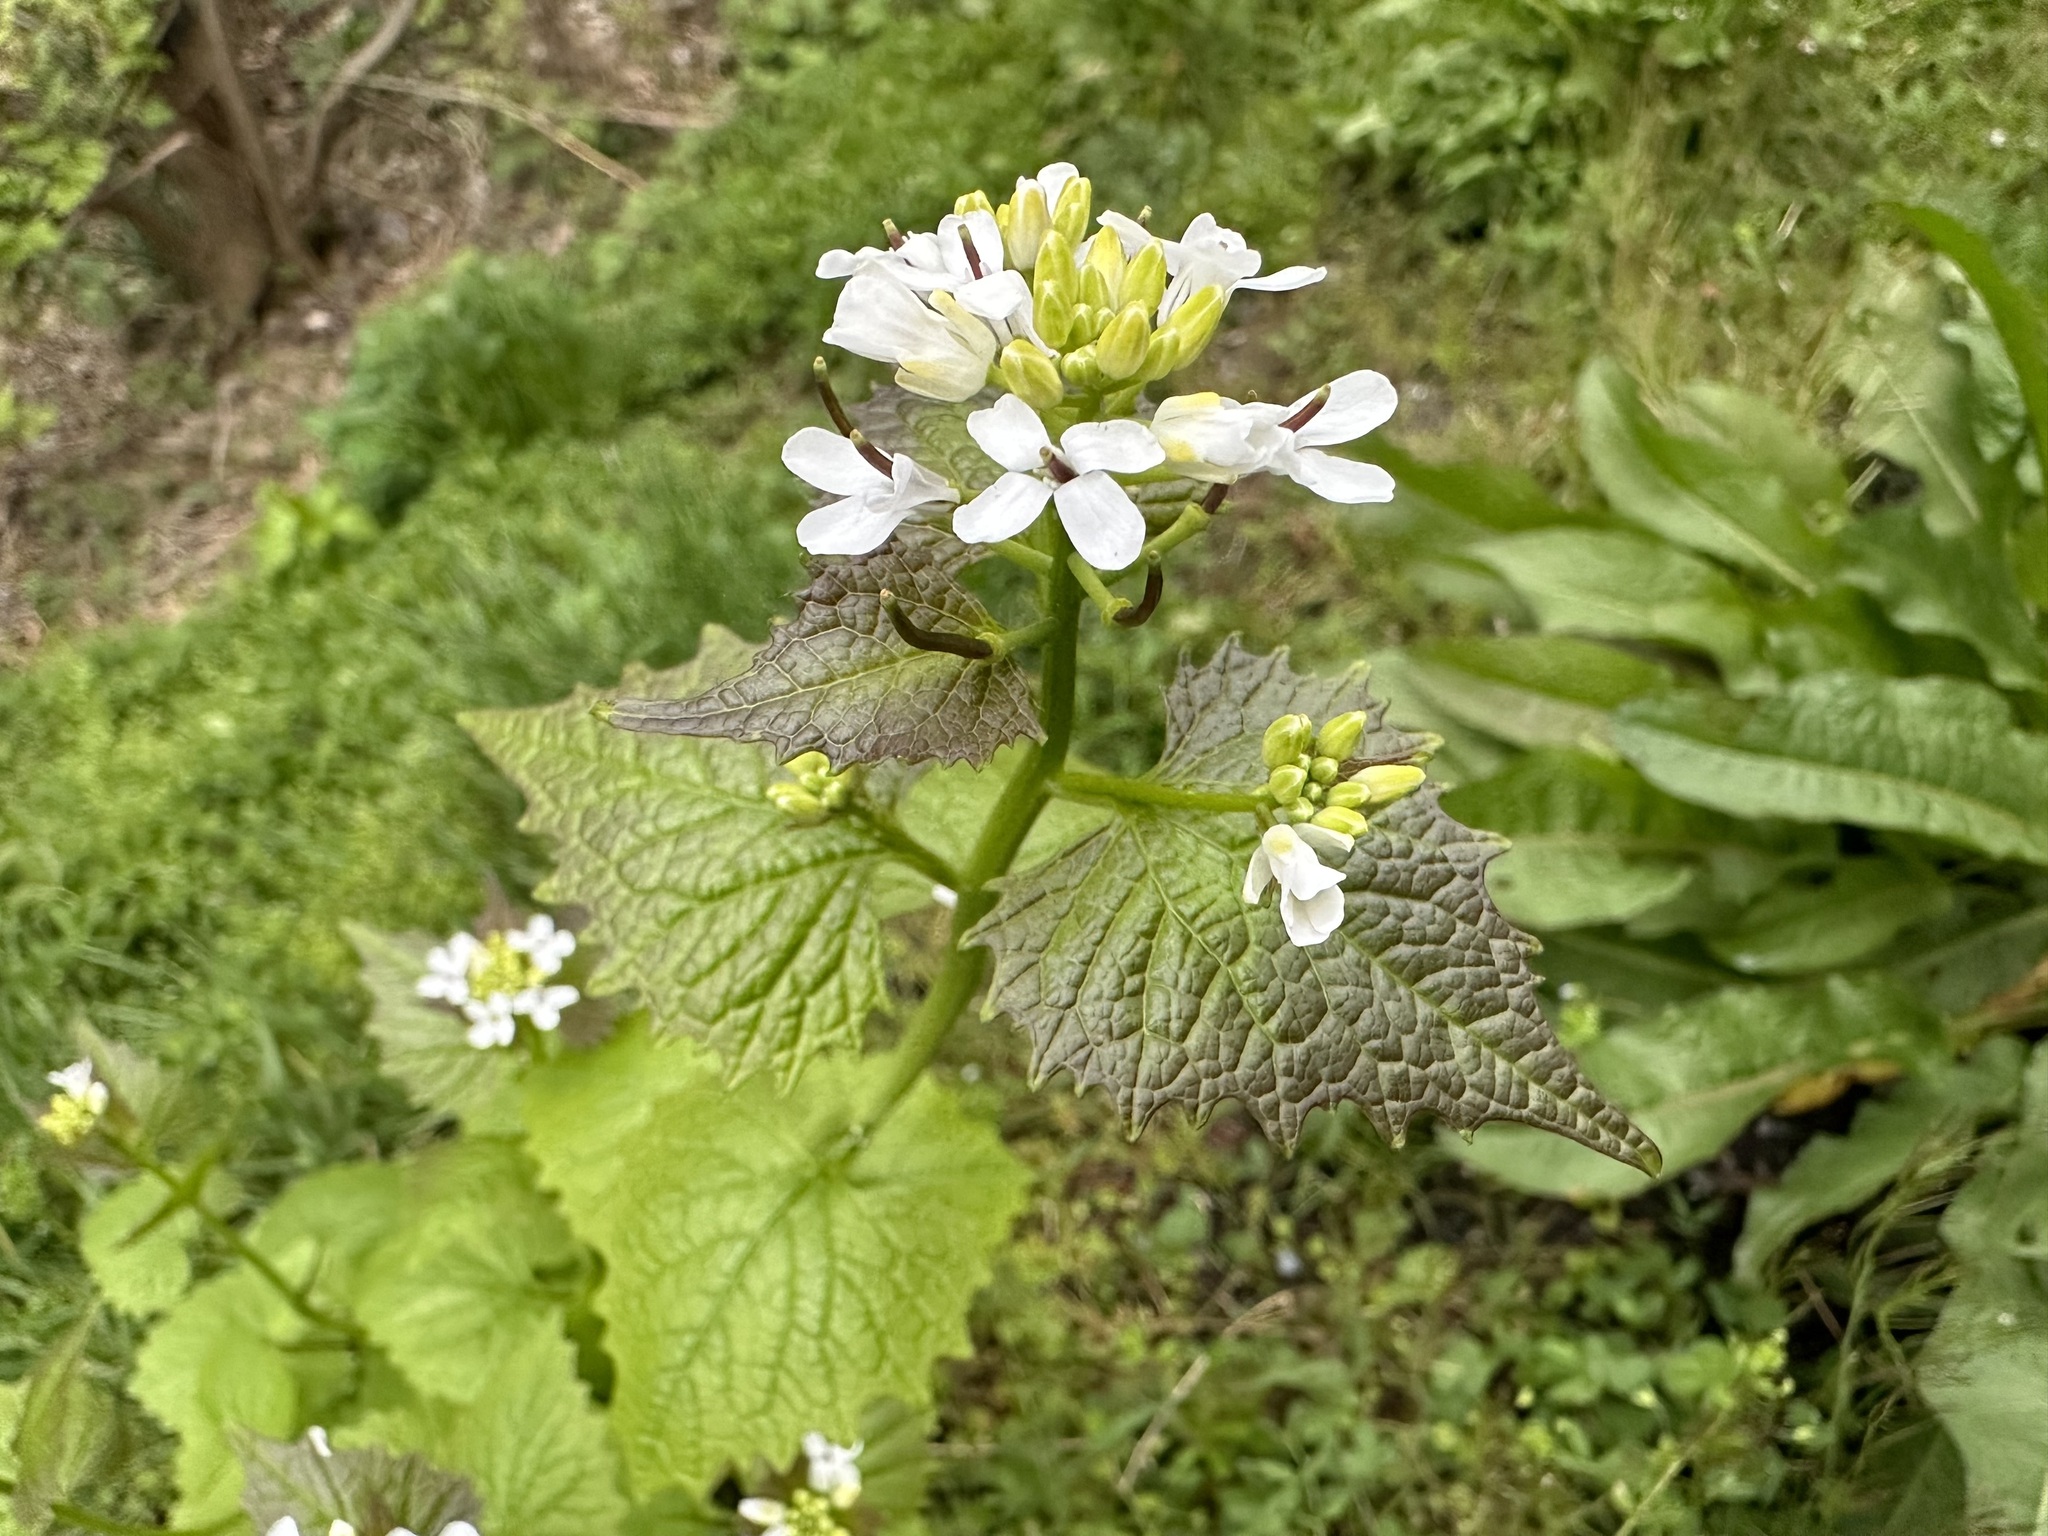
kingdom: Plantae
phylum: Tracheophyta
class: Magnoliopsida
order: Brassicales
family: Brassicaceae
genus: Alliaria
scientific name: Alliaria petiolata
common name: Garlic mustard
